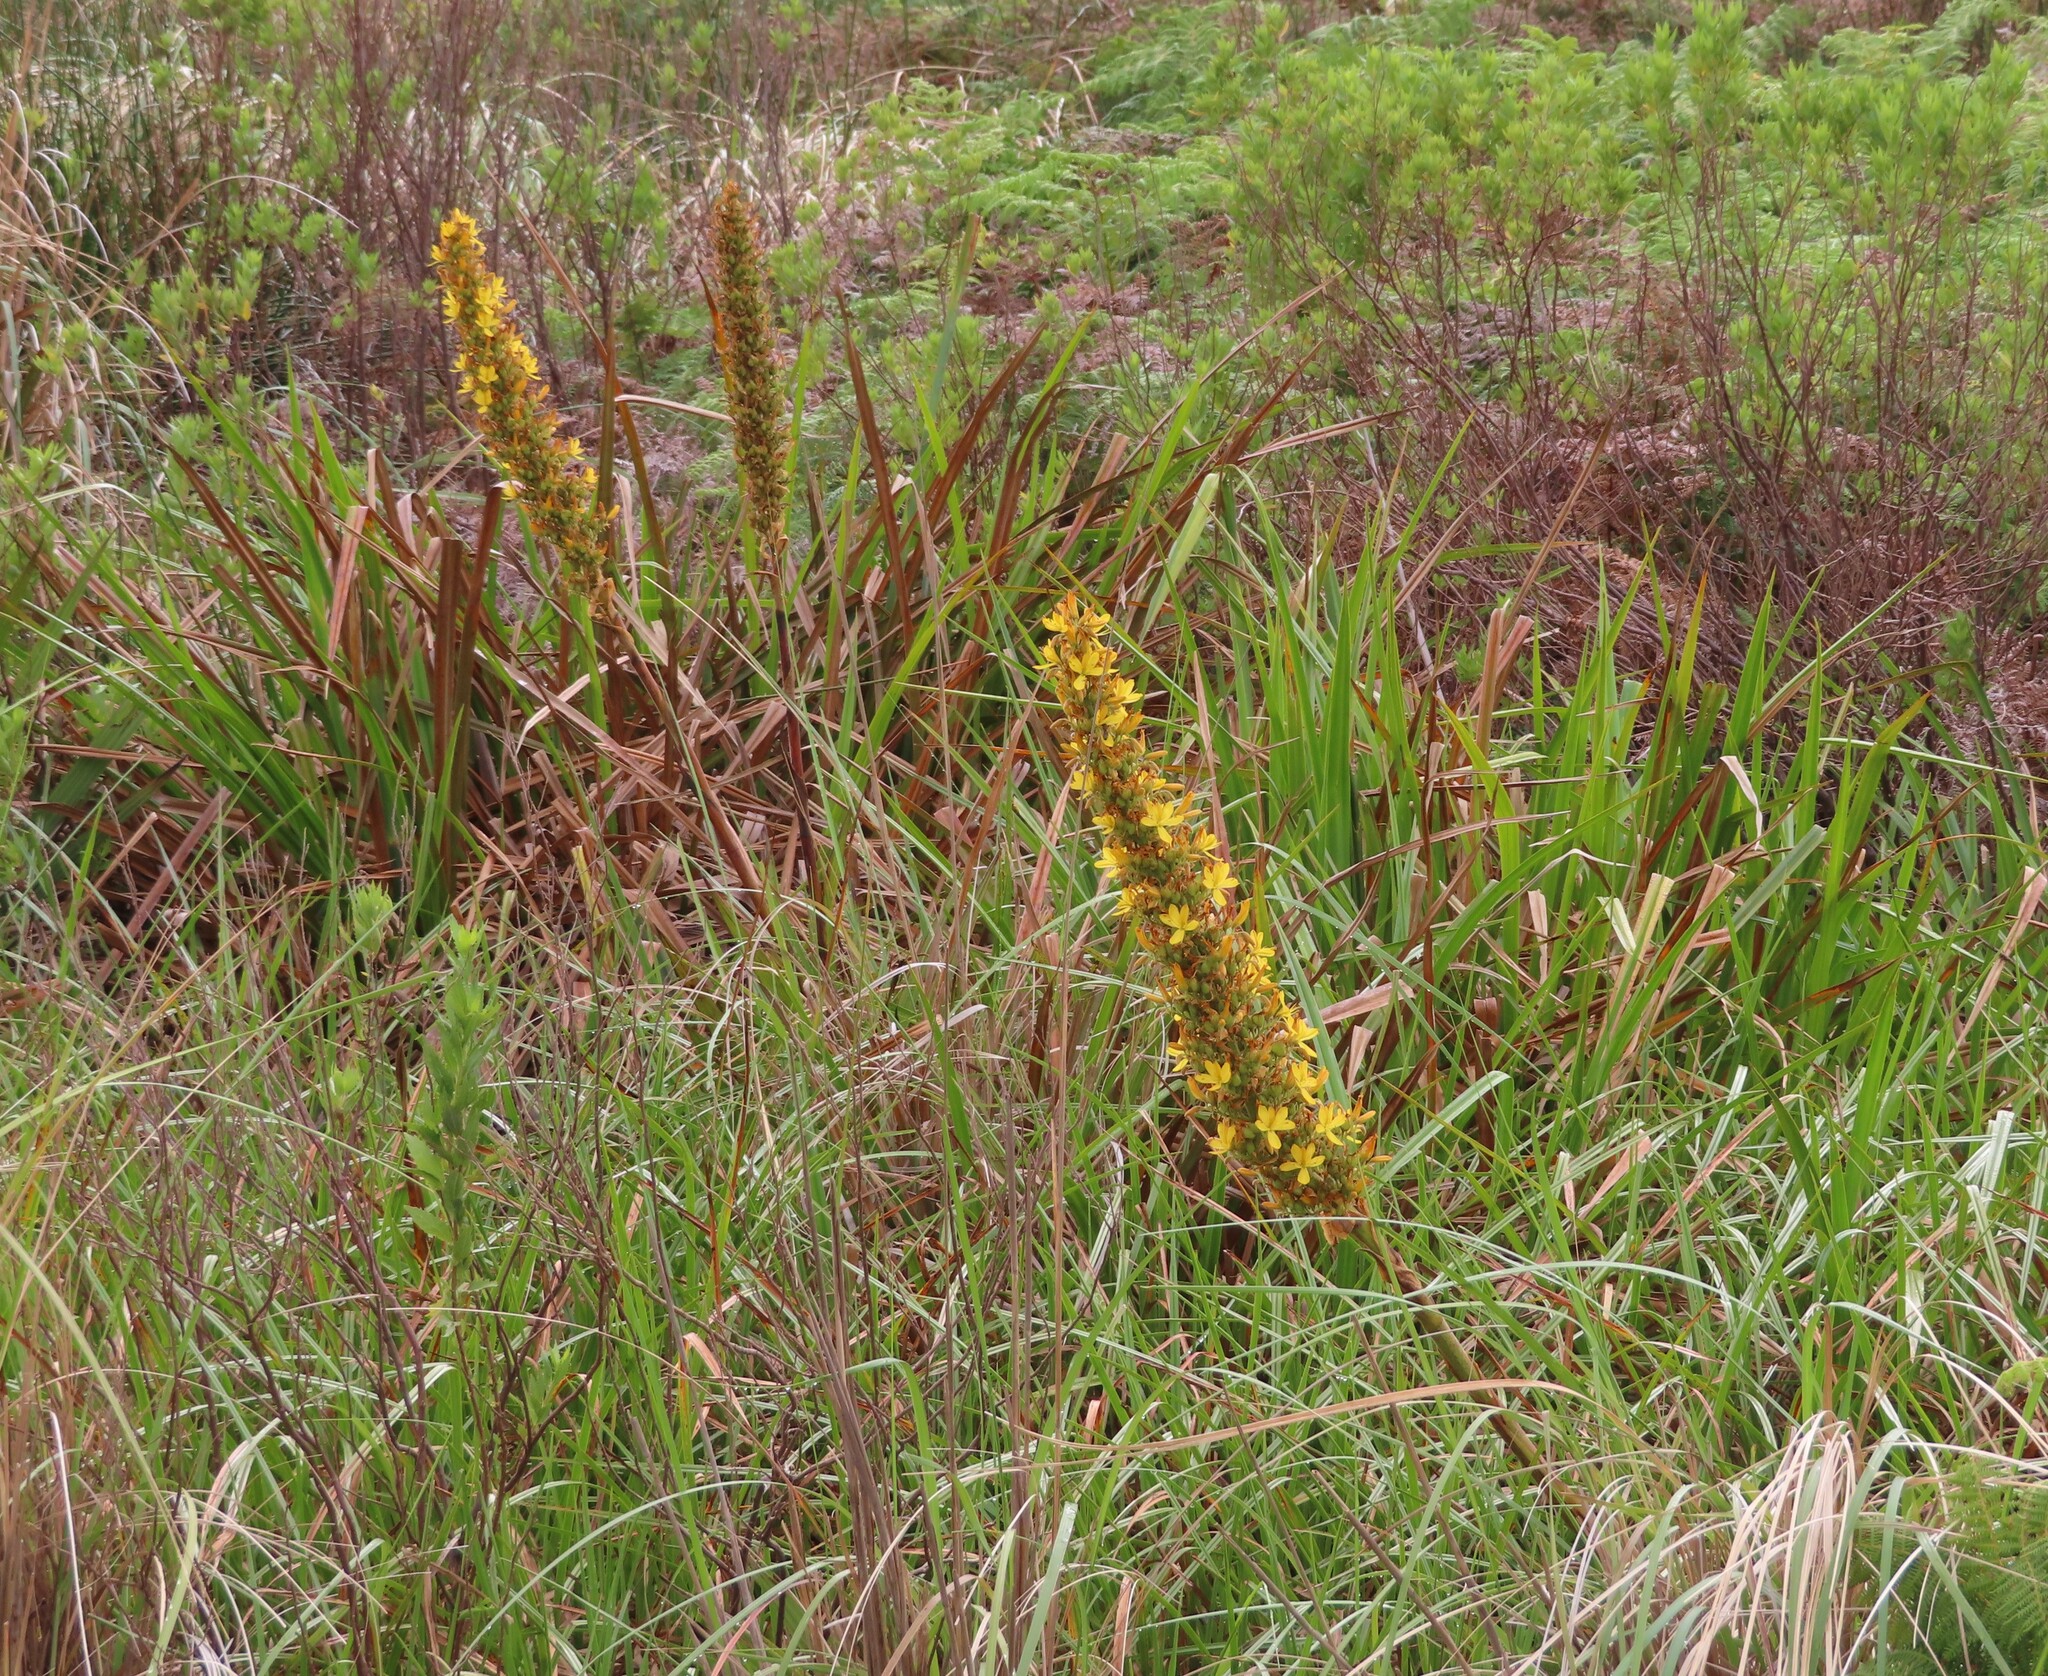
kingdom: Plantae
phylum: Tracheophyta
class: Liliopsida
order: Commelinales
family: Haemodoraceae
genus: Wachendorfia
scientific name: Wachendorfia thyrsiflora
